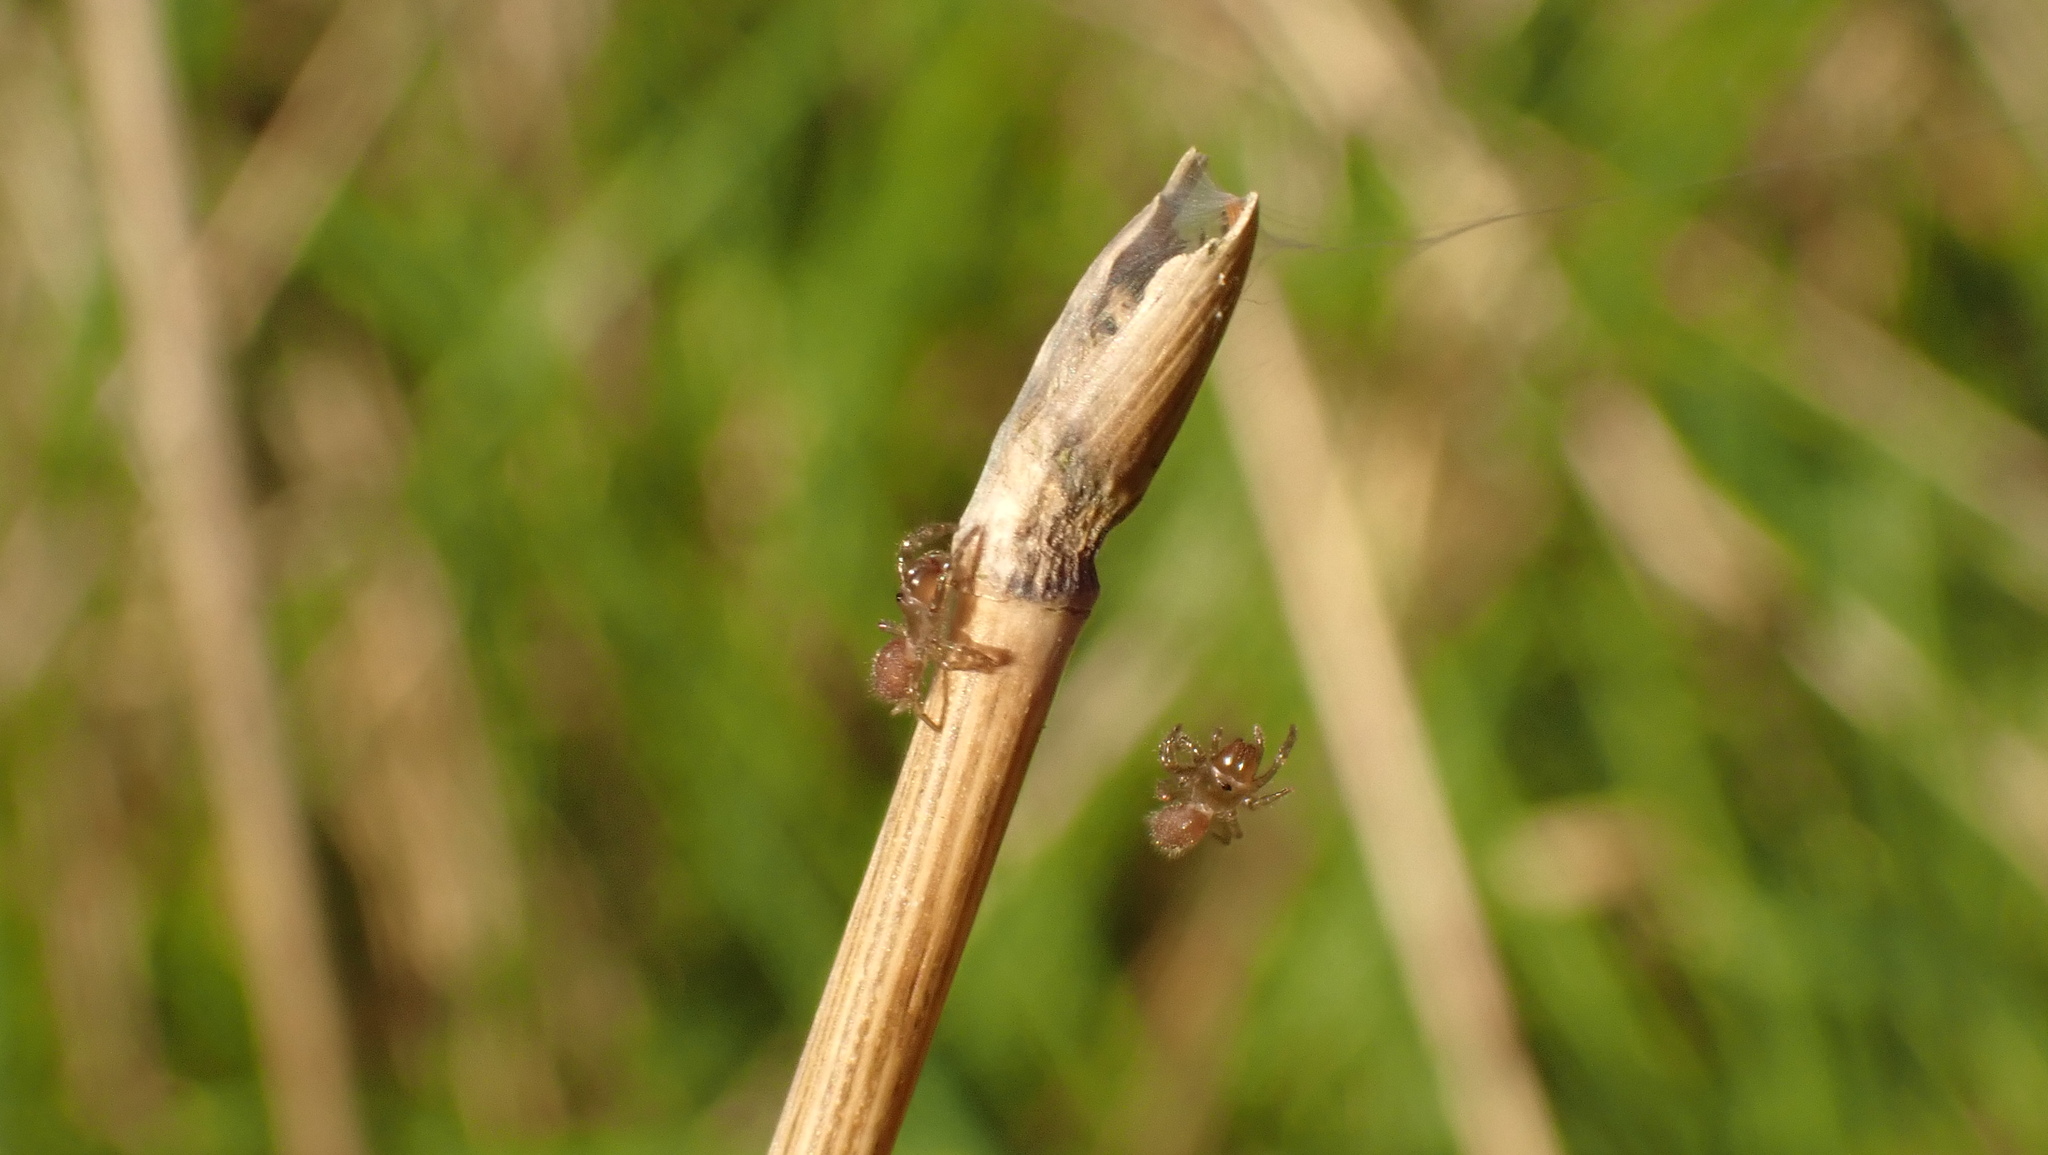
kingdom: Animalia
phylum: Arthropoda
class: Arachnida
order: Araneae
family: Atypidae
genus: Atypus
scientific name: Atypus affinis
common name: Purse web spider
